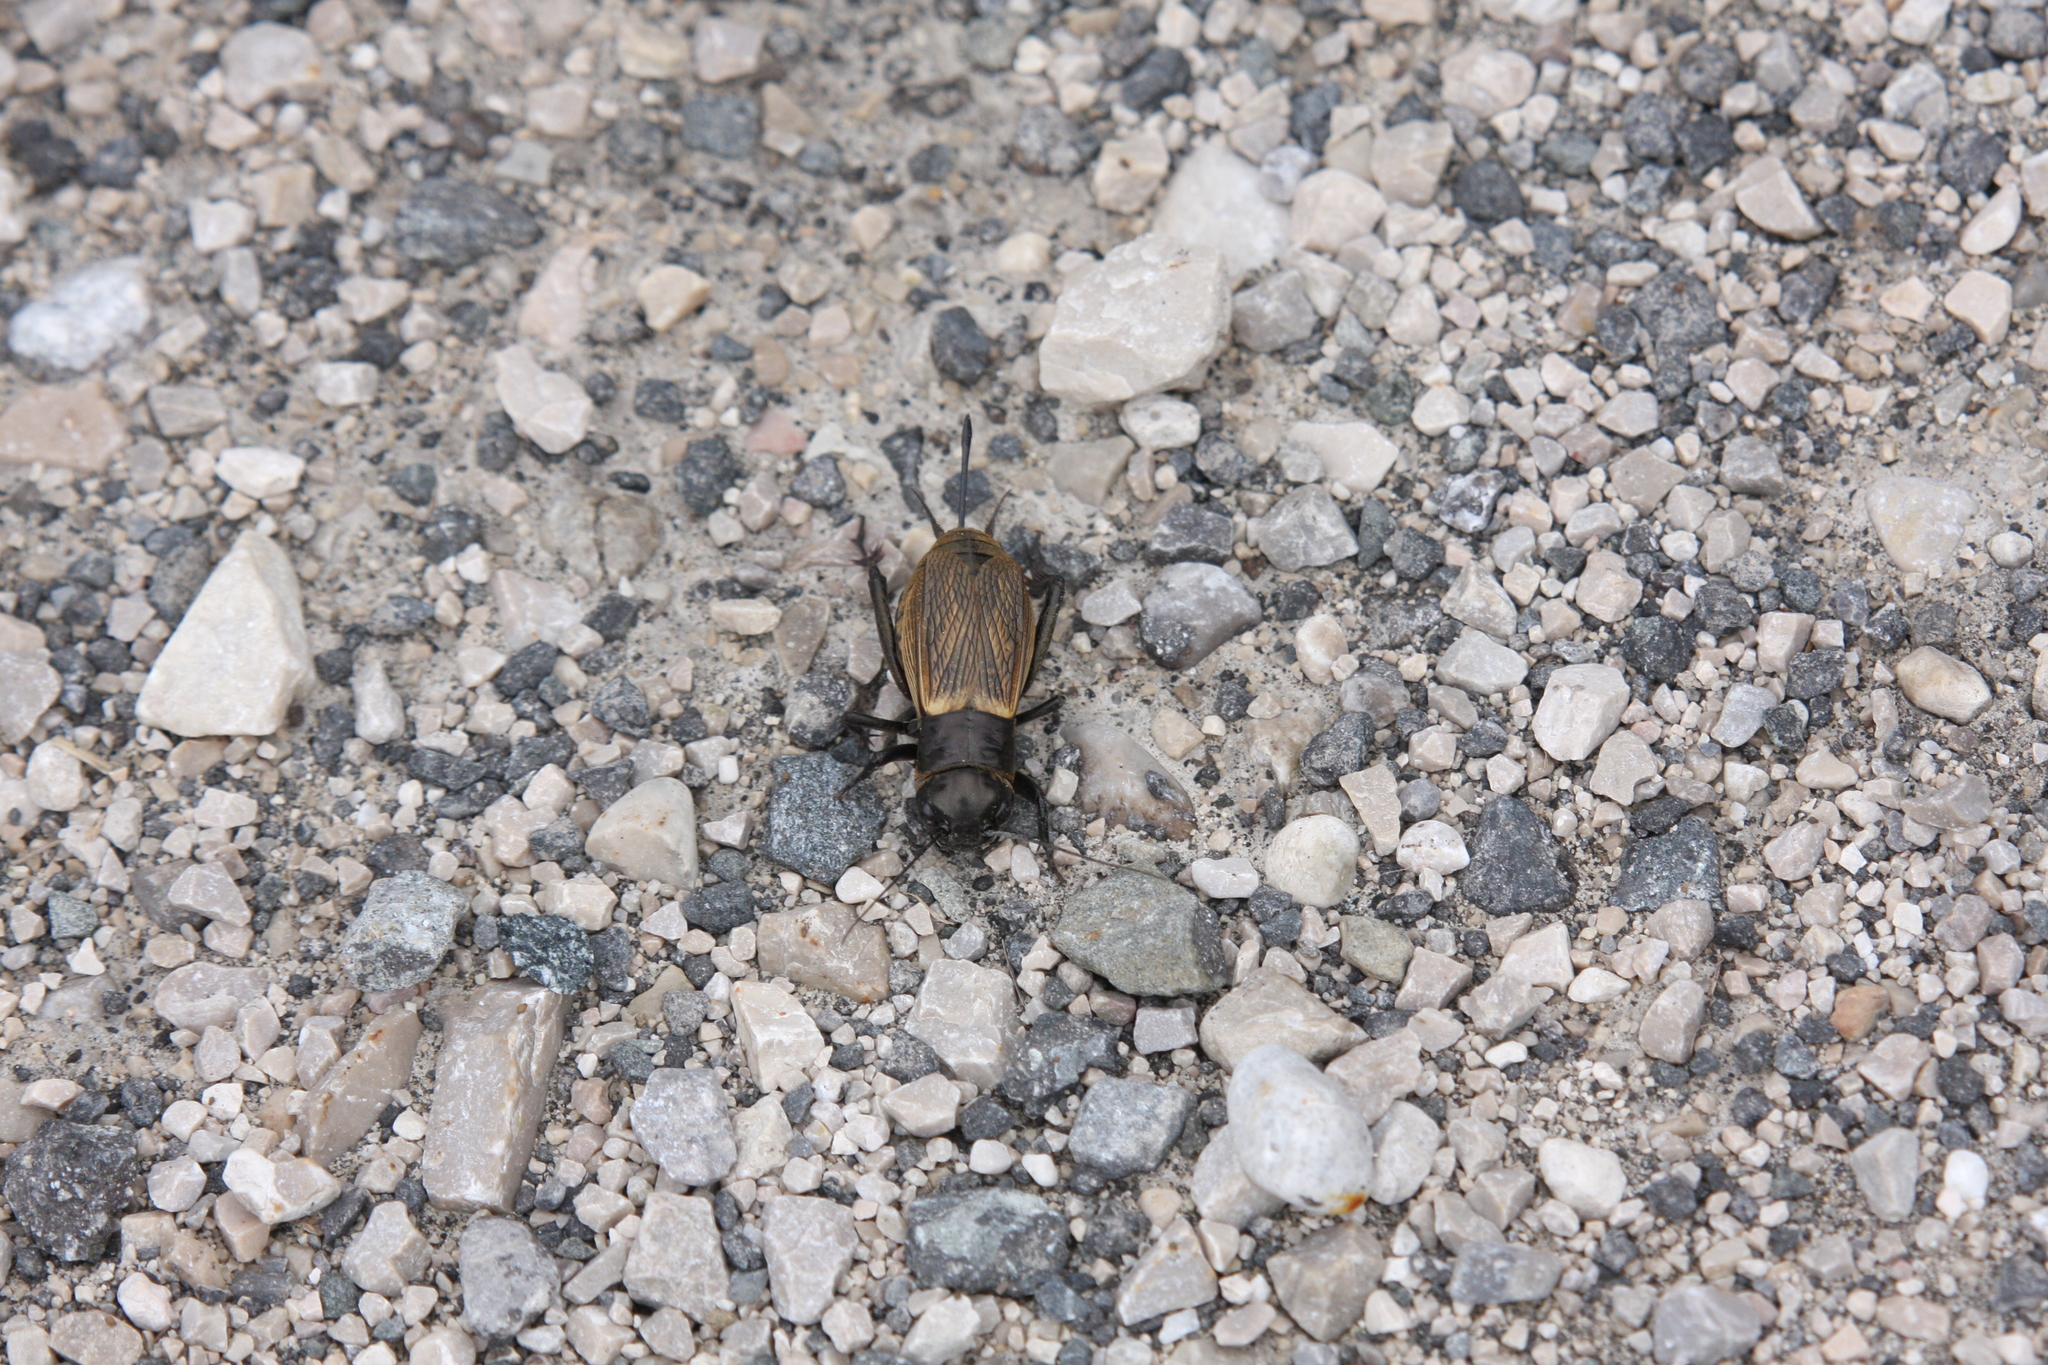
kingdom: Animalia
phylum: Arthropoda
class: Insecta
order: Orthoptera
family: Gryllidae
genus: Gryllus
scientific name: Gryllus campestris
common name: Field cricket
